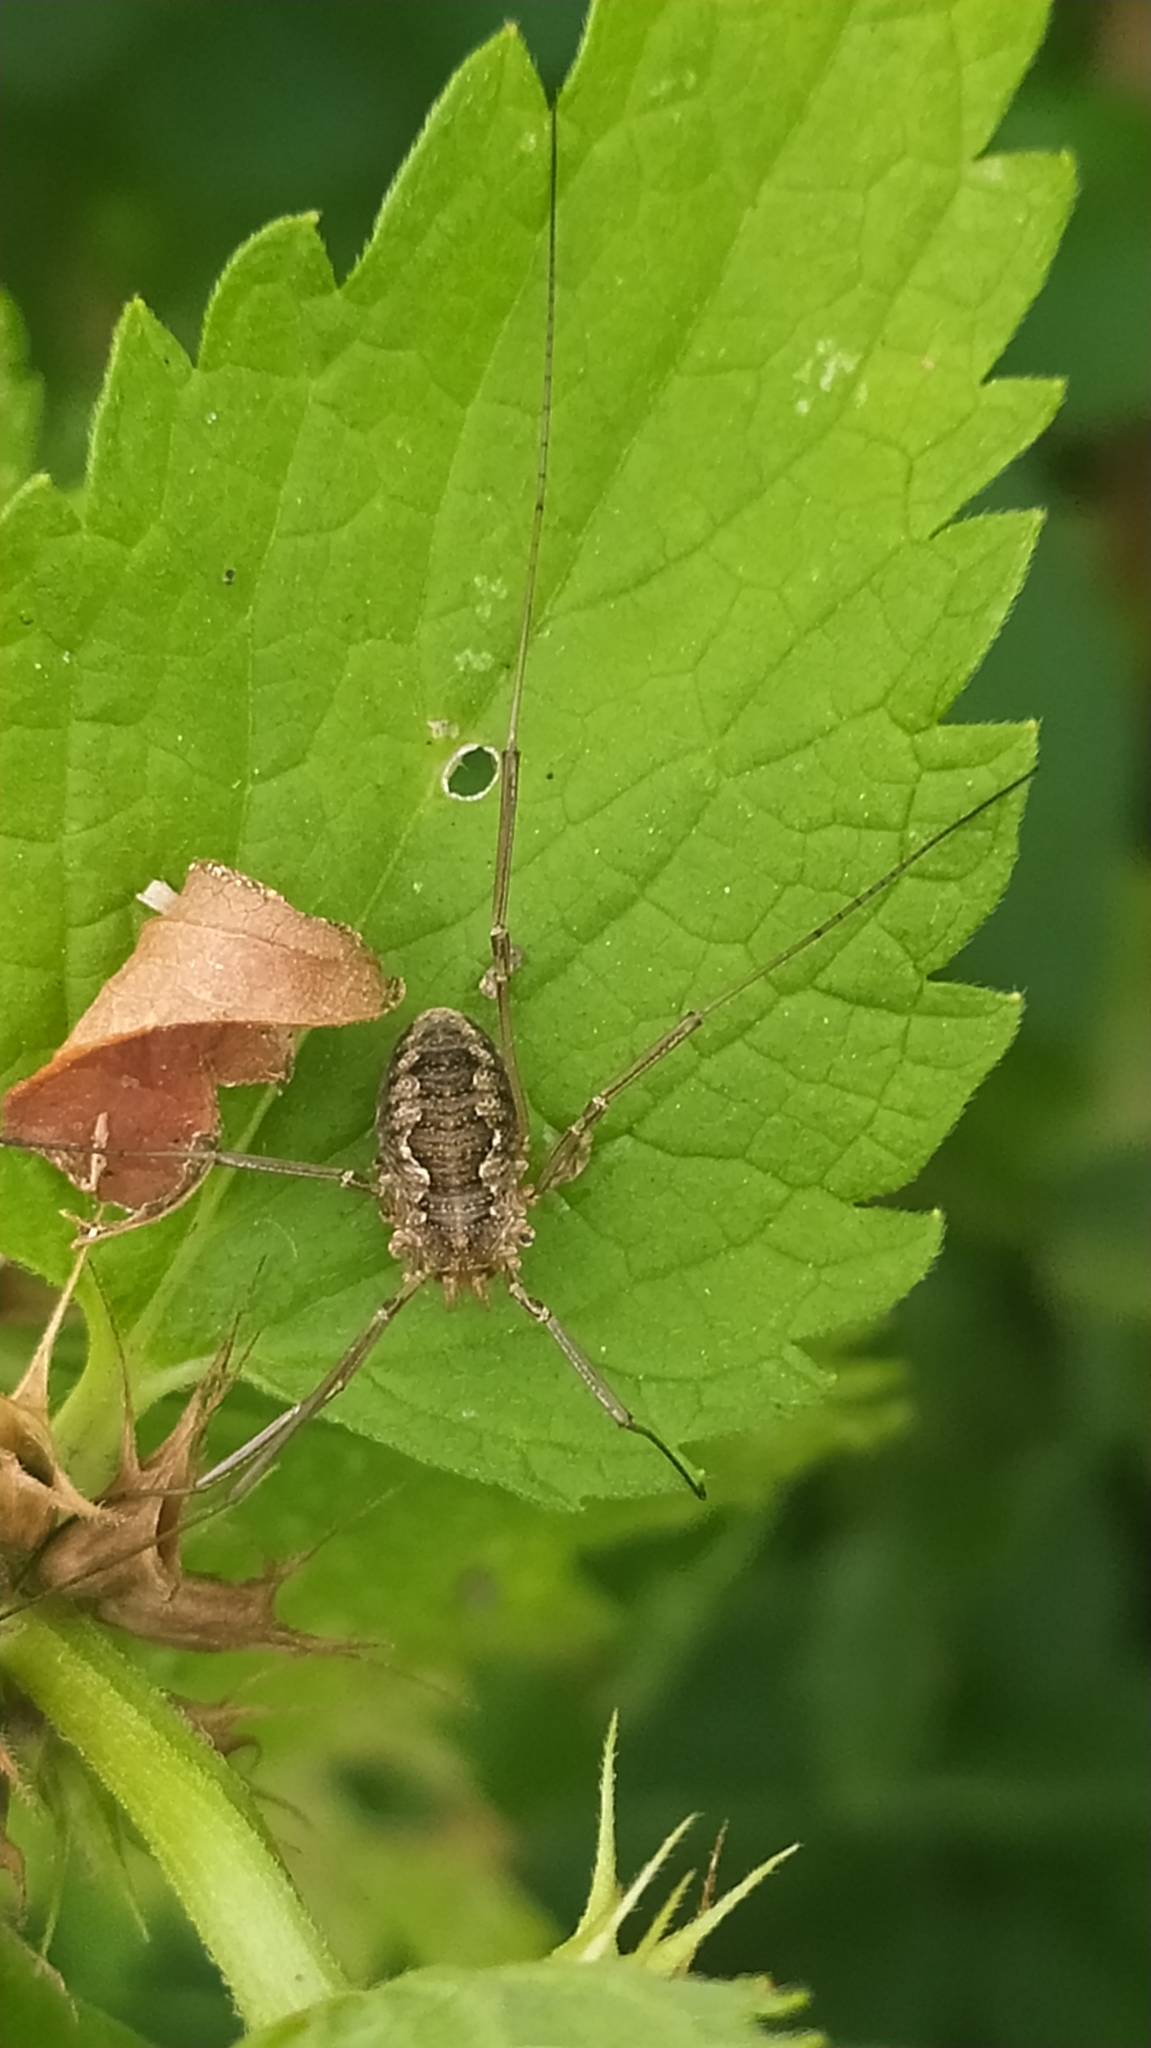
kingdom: Animalia
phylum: Arthropoda
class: Arachnida
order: Opiliones
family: Phalangiidae
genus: Phalangium
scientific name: Phalangium opilio
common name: Daddy longleg
